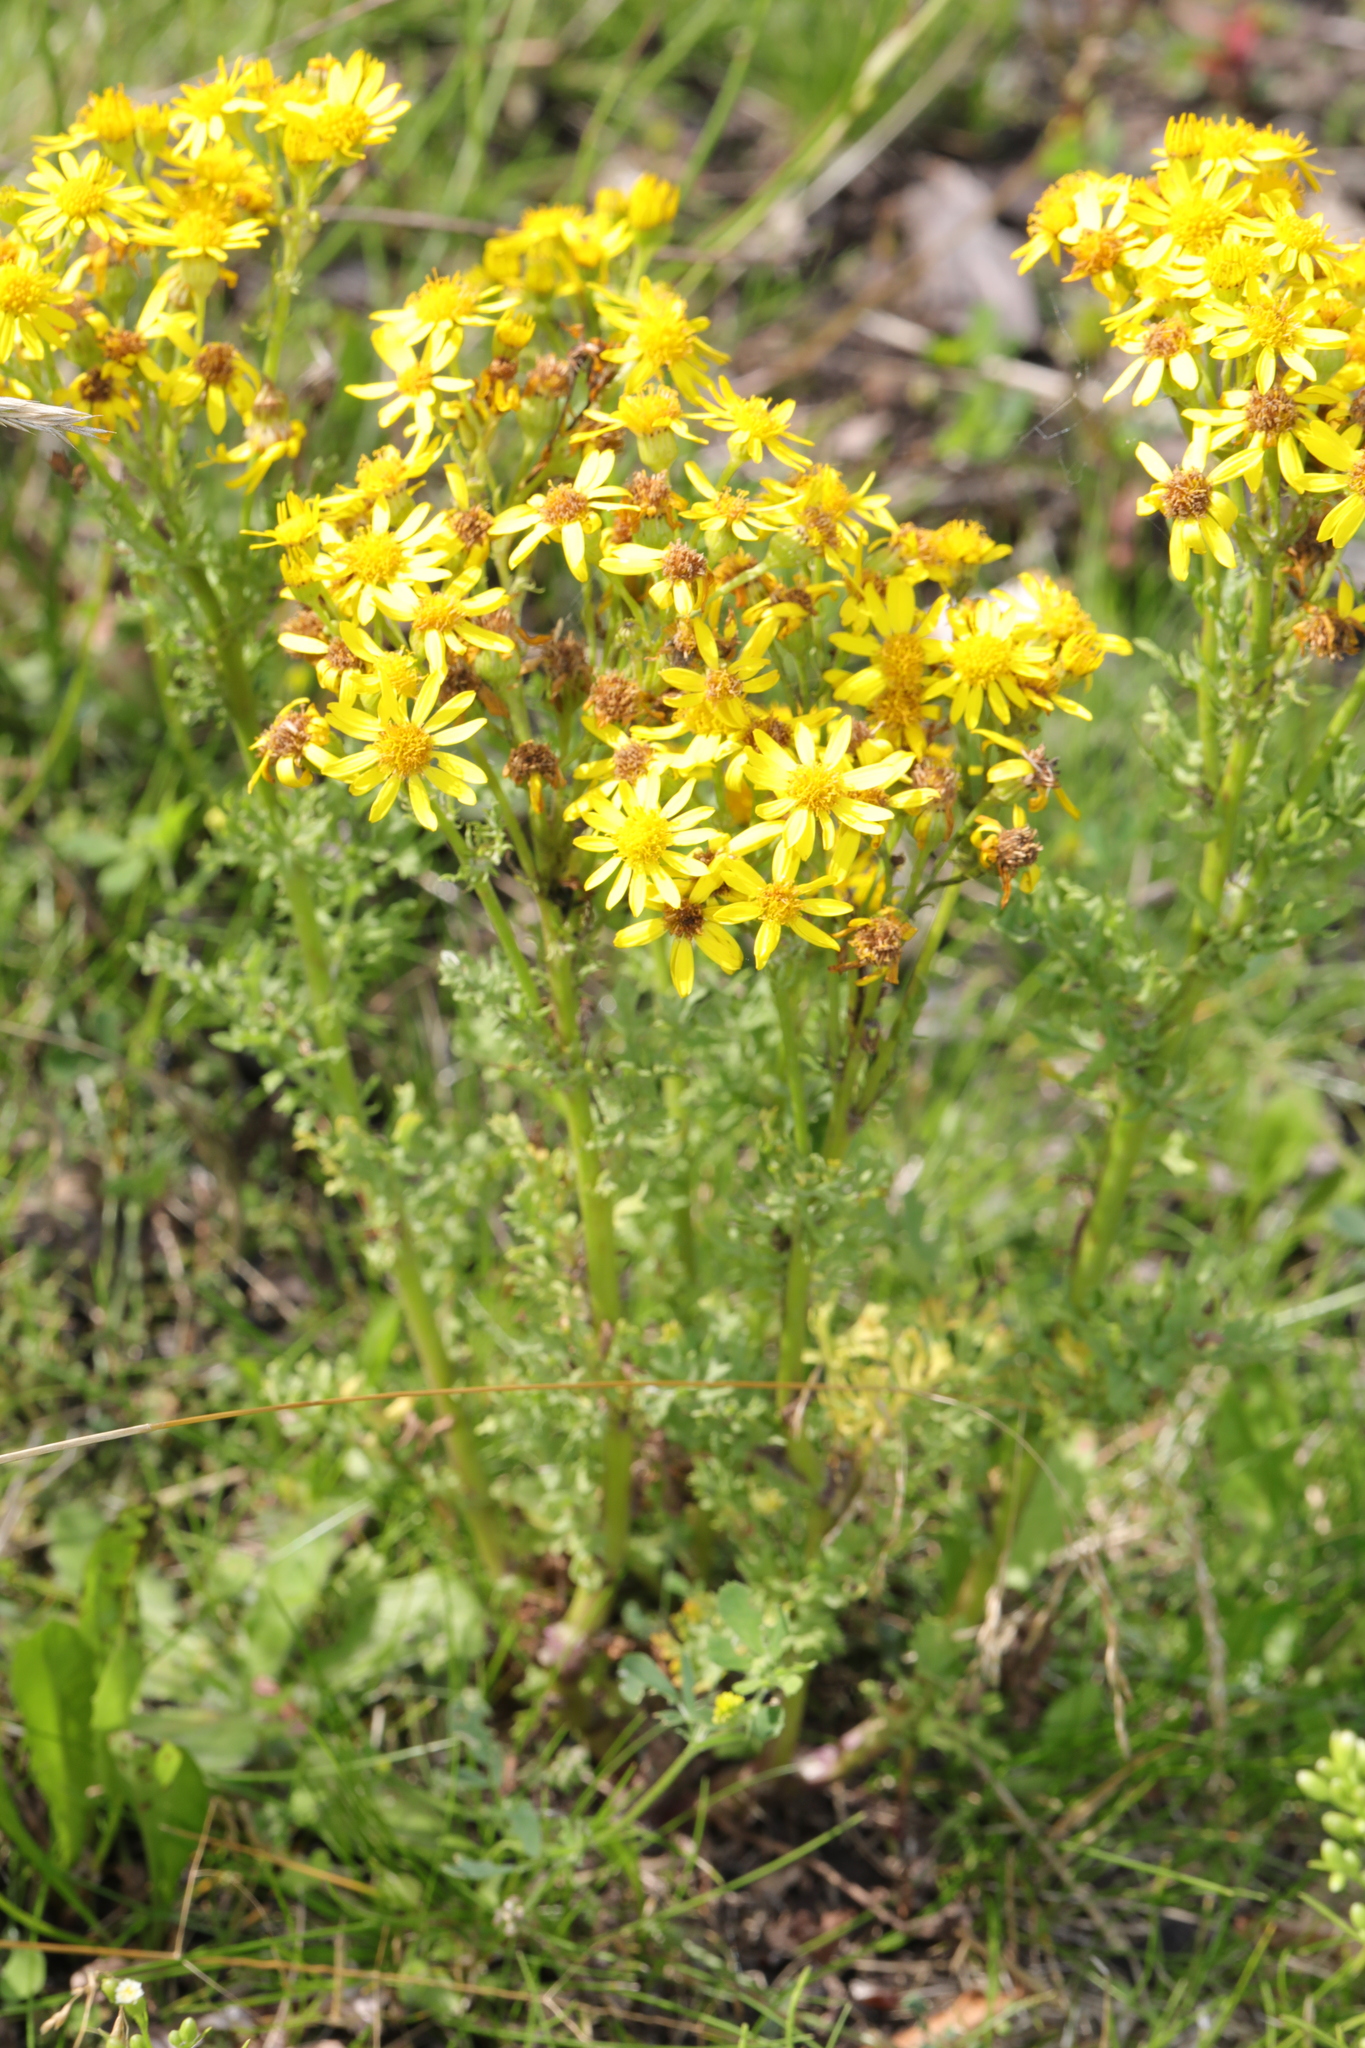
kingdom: Plantae
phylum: Tracheophyta
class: Magnoliopsida
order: Asterales
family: Asteraceae
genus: Jacobaea
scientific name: Jacobaea vulgaris
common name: Stinking willie
